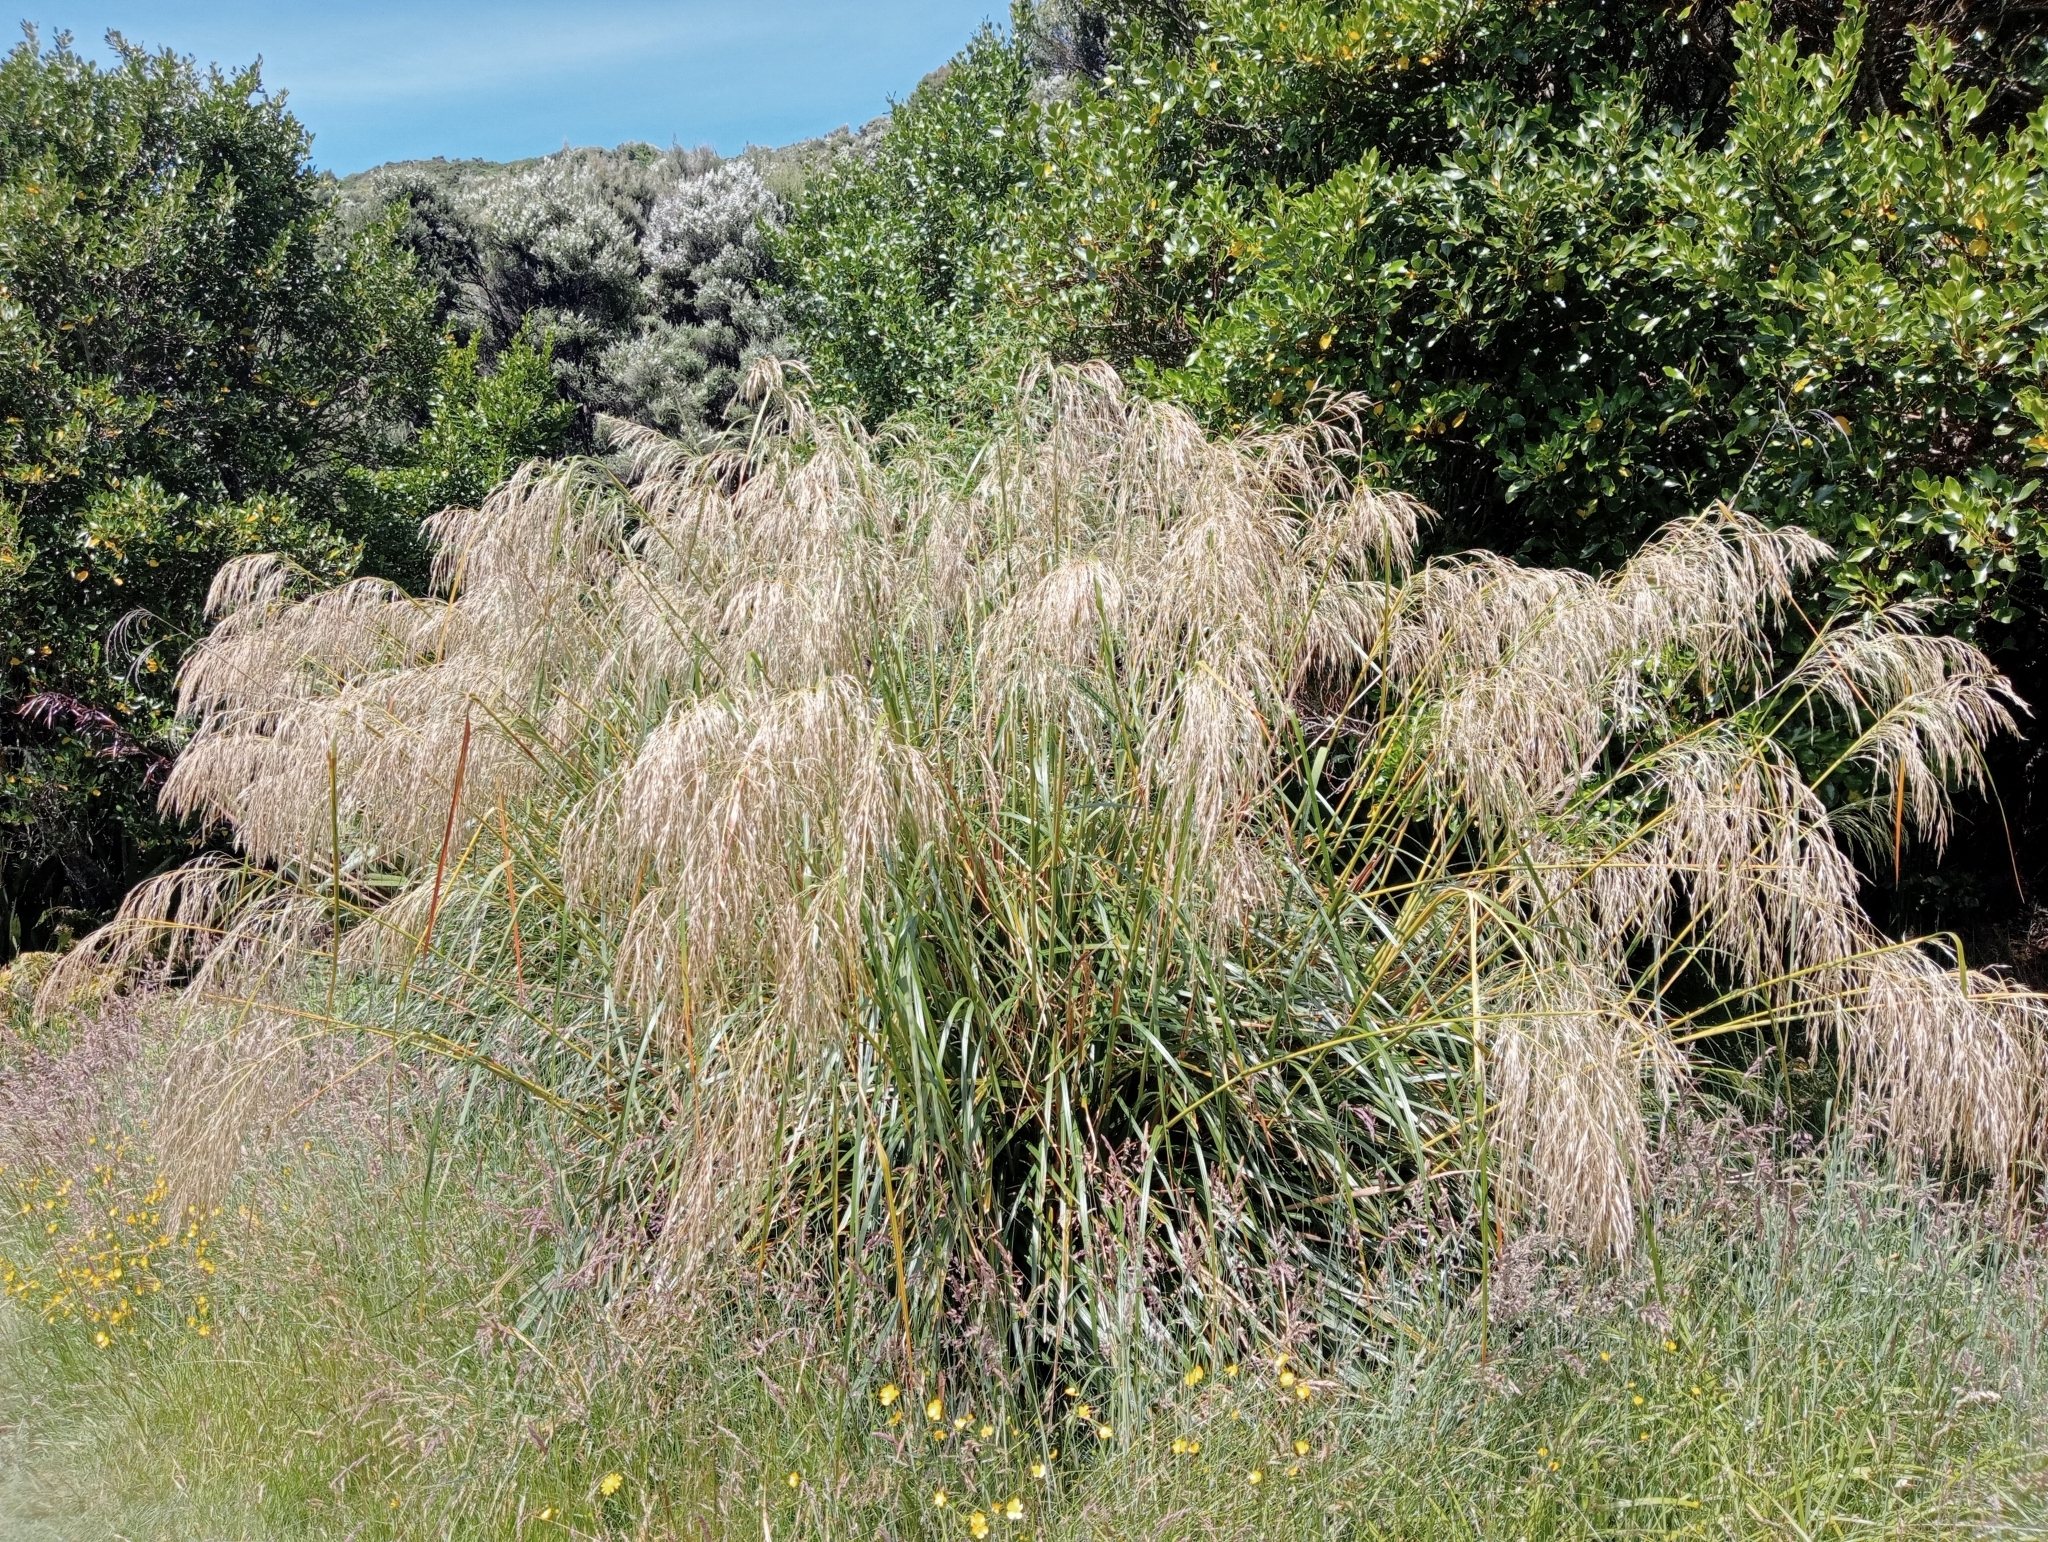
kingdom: Plantae
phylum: Tracheophyta
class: Liliopsida
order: Poales
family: Poaceae
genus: Chionochloa
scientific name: Chionochloa conspicua
